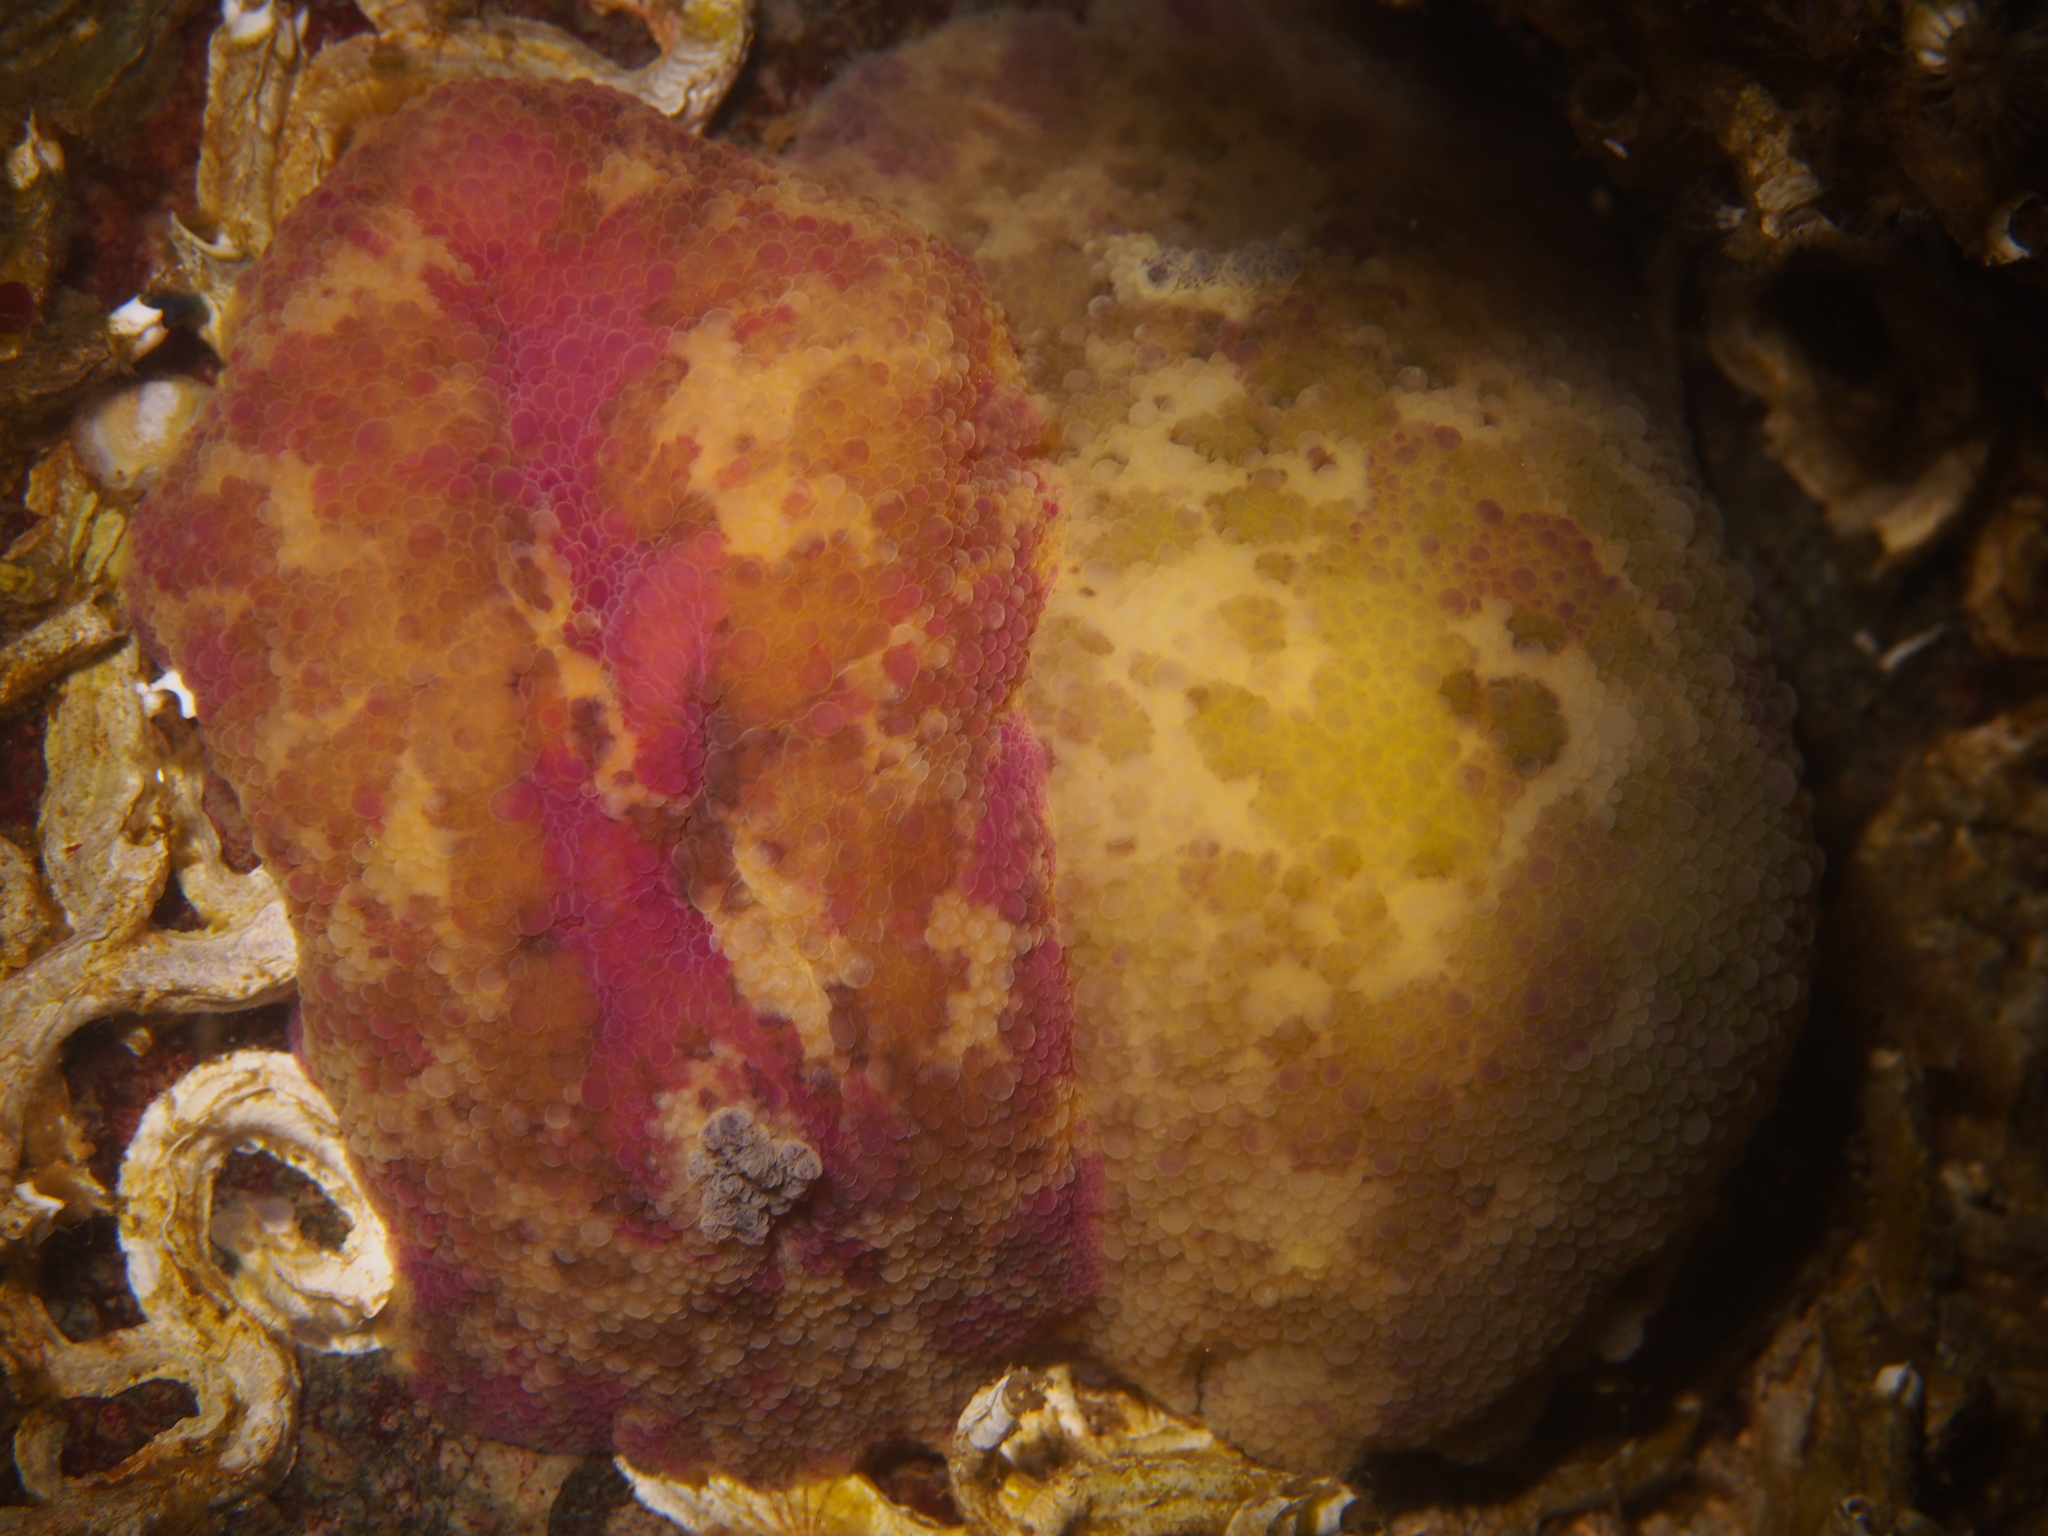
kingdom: Animalia
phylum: Mollusca
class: Gastropoda
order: Nudibranchia
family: Dorididae
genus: Doris
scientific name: Doris pseudoargus
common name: Sea lemon
